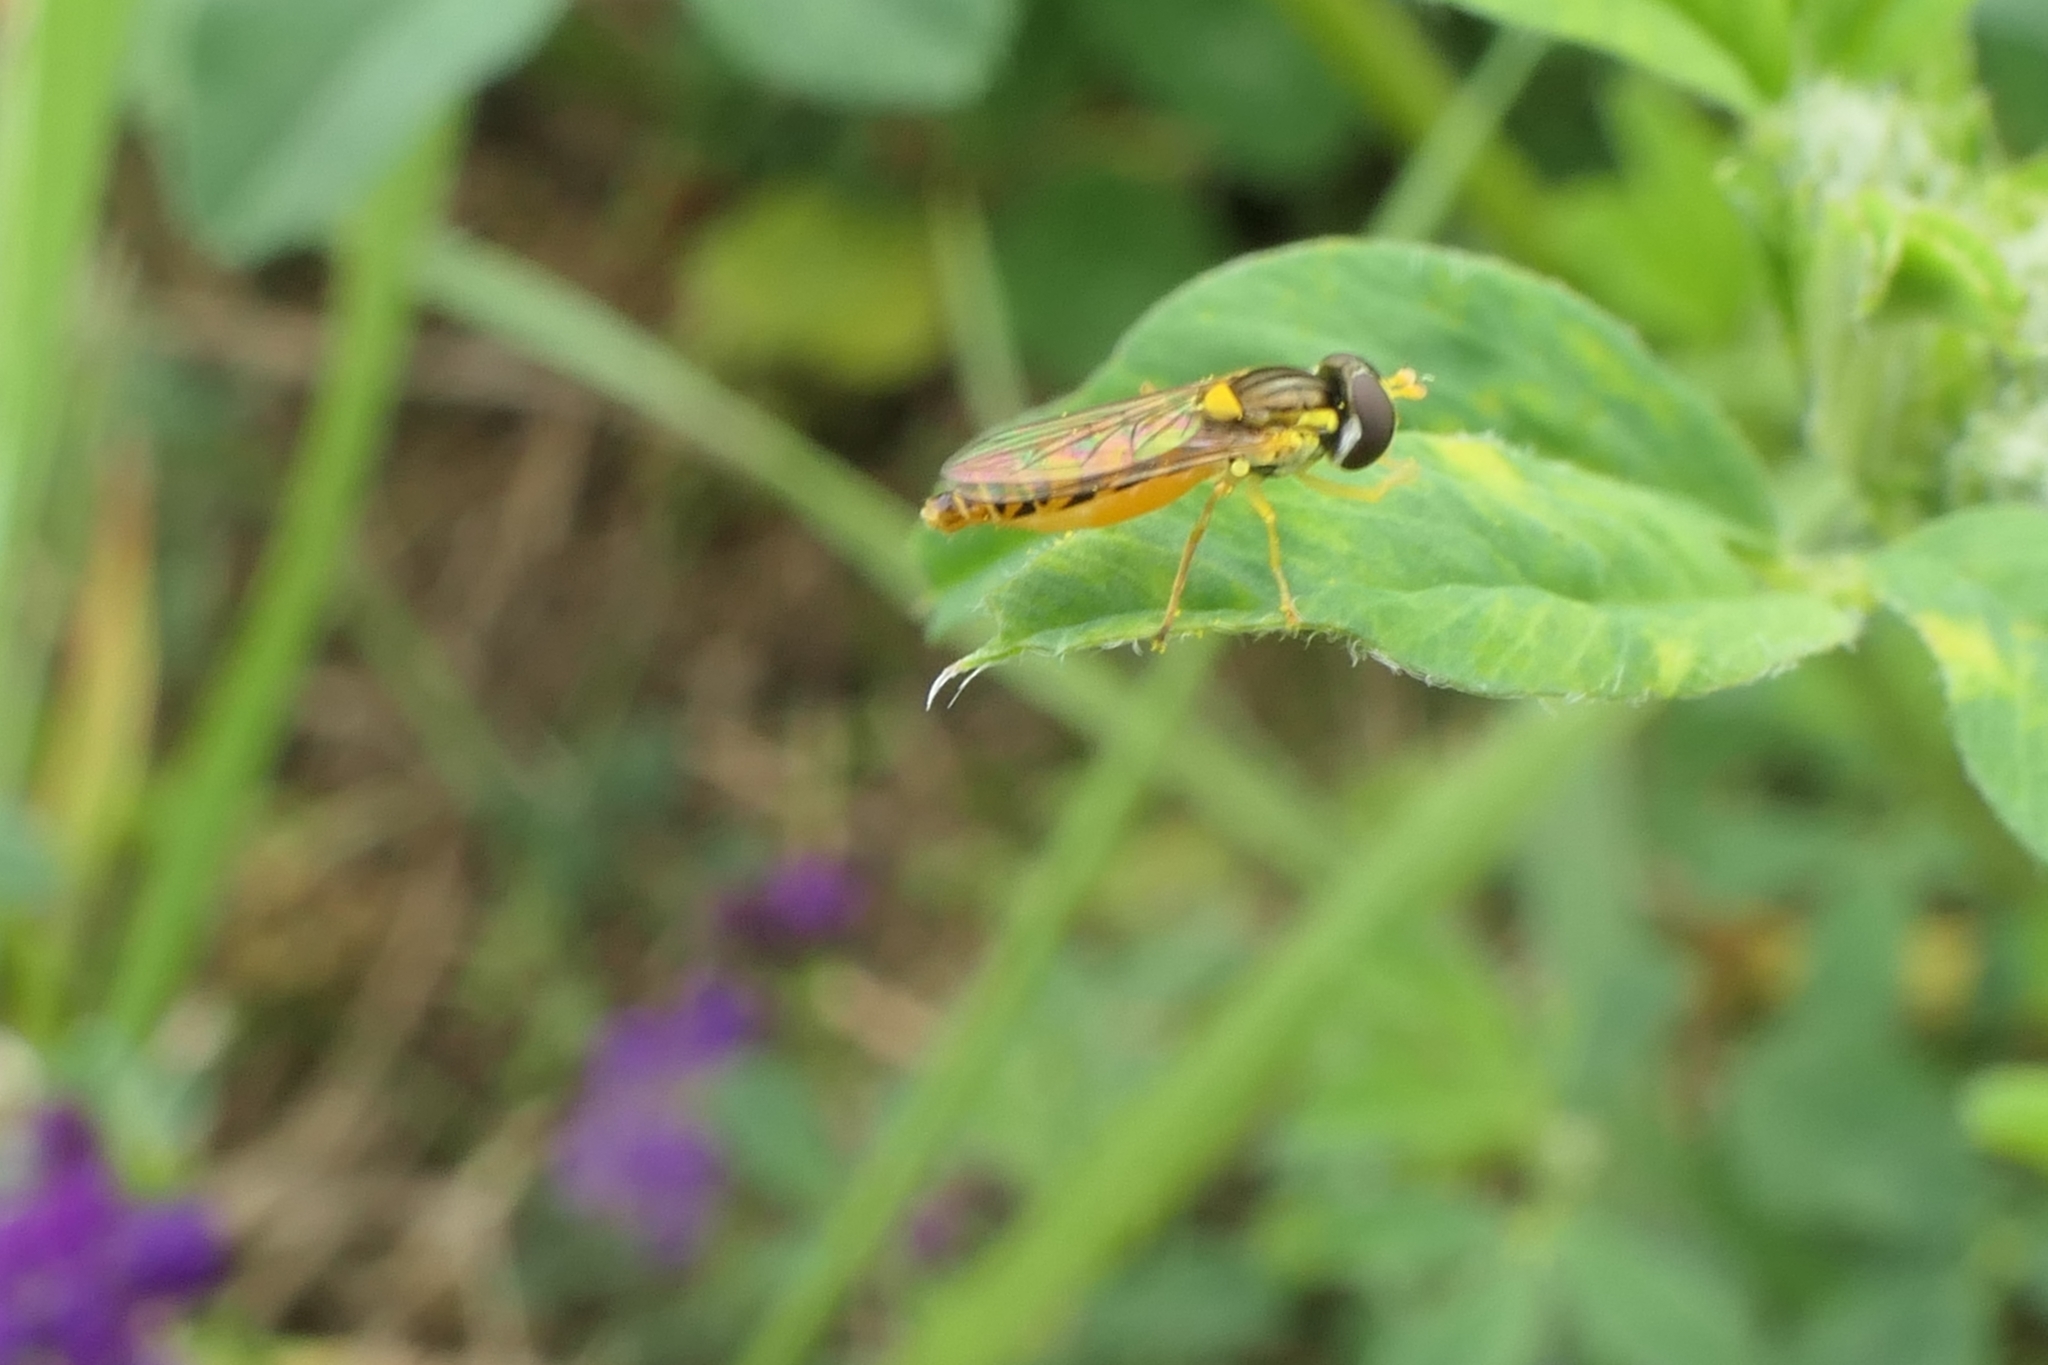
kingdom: Animalia
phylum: Arthropoda
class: Insecta
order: Diptera
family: Syrphidae
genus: Sphaerophoria
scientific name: Sphaerophoria macrogaster
